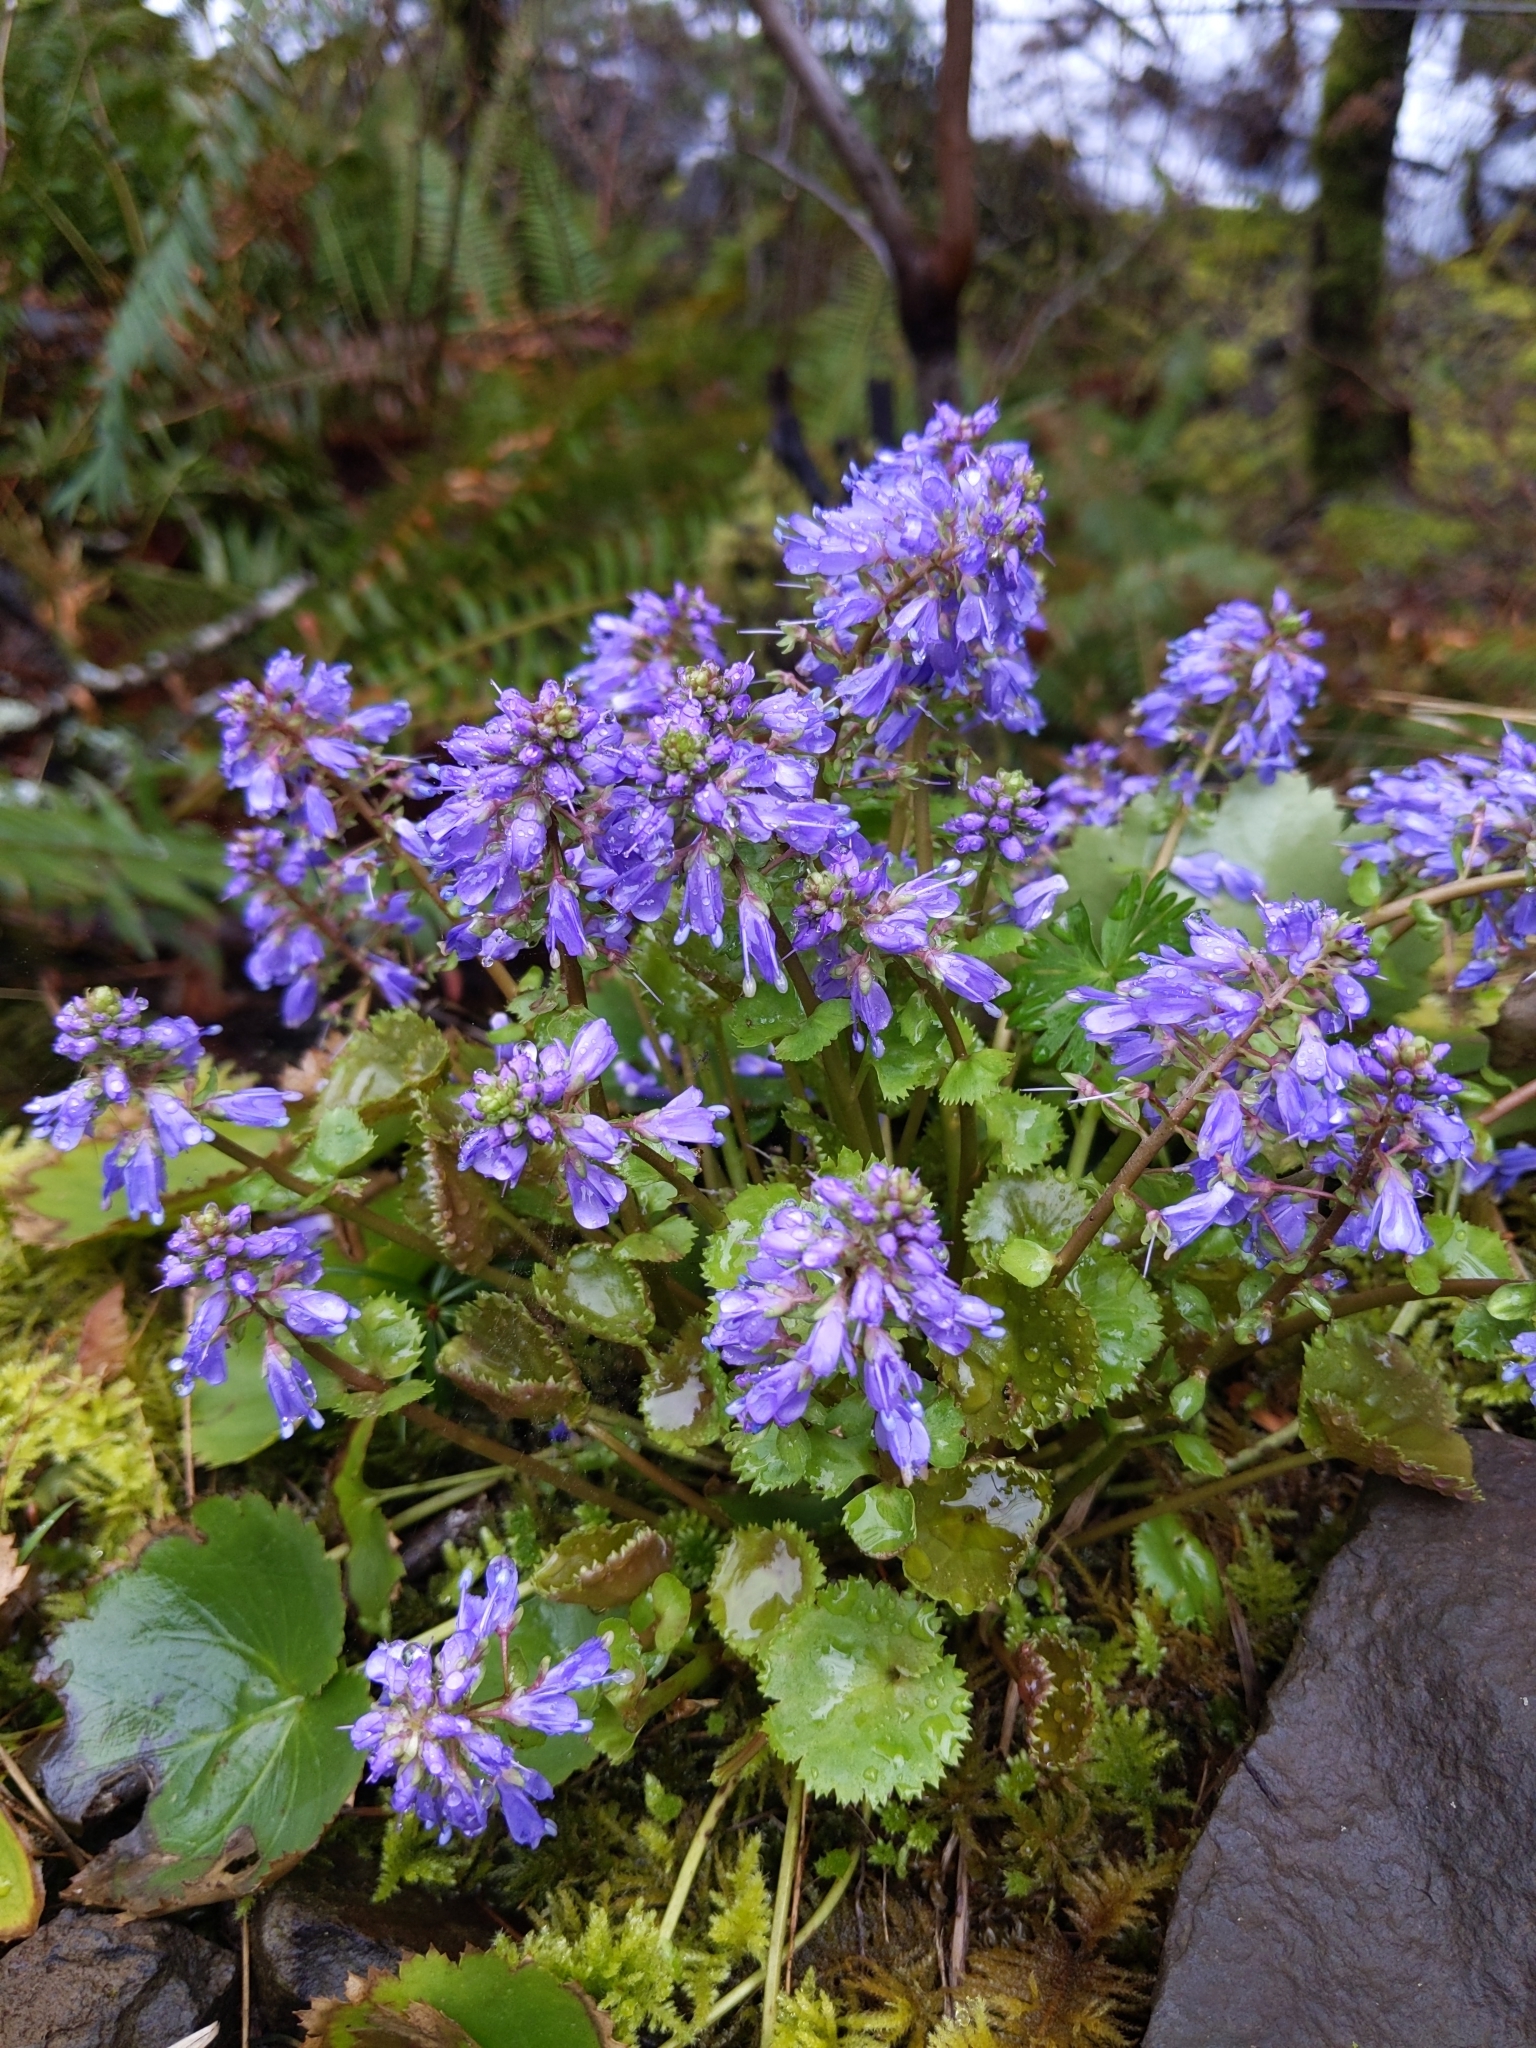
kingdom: Plantae
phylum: Tracheophyta
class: Magnoliopsida
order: Lamiales
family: Plantaginaceae
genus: Synthyris
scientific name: Synthyris missurica
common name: Kitten-tails
